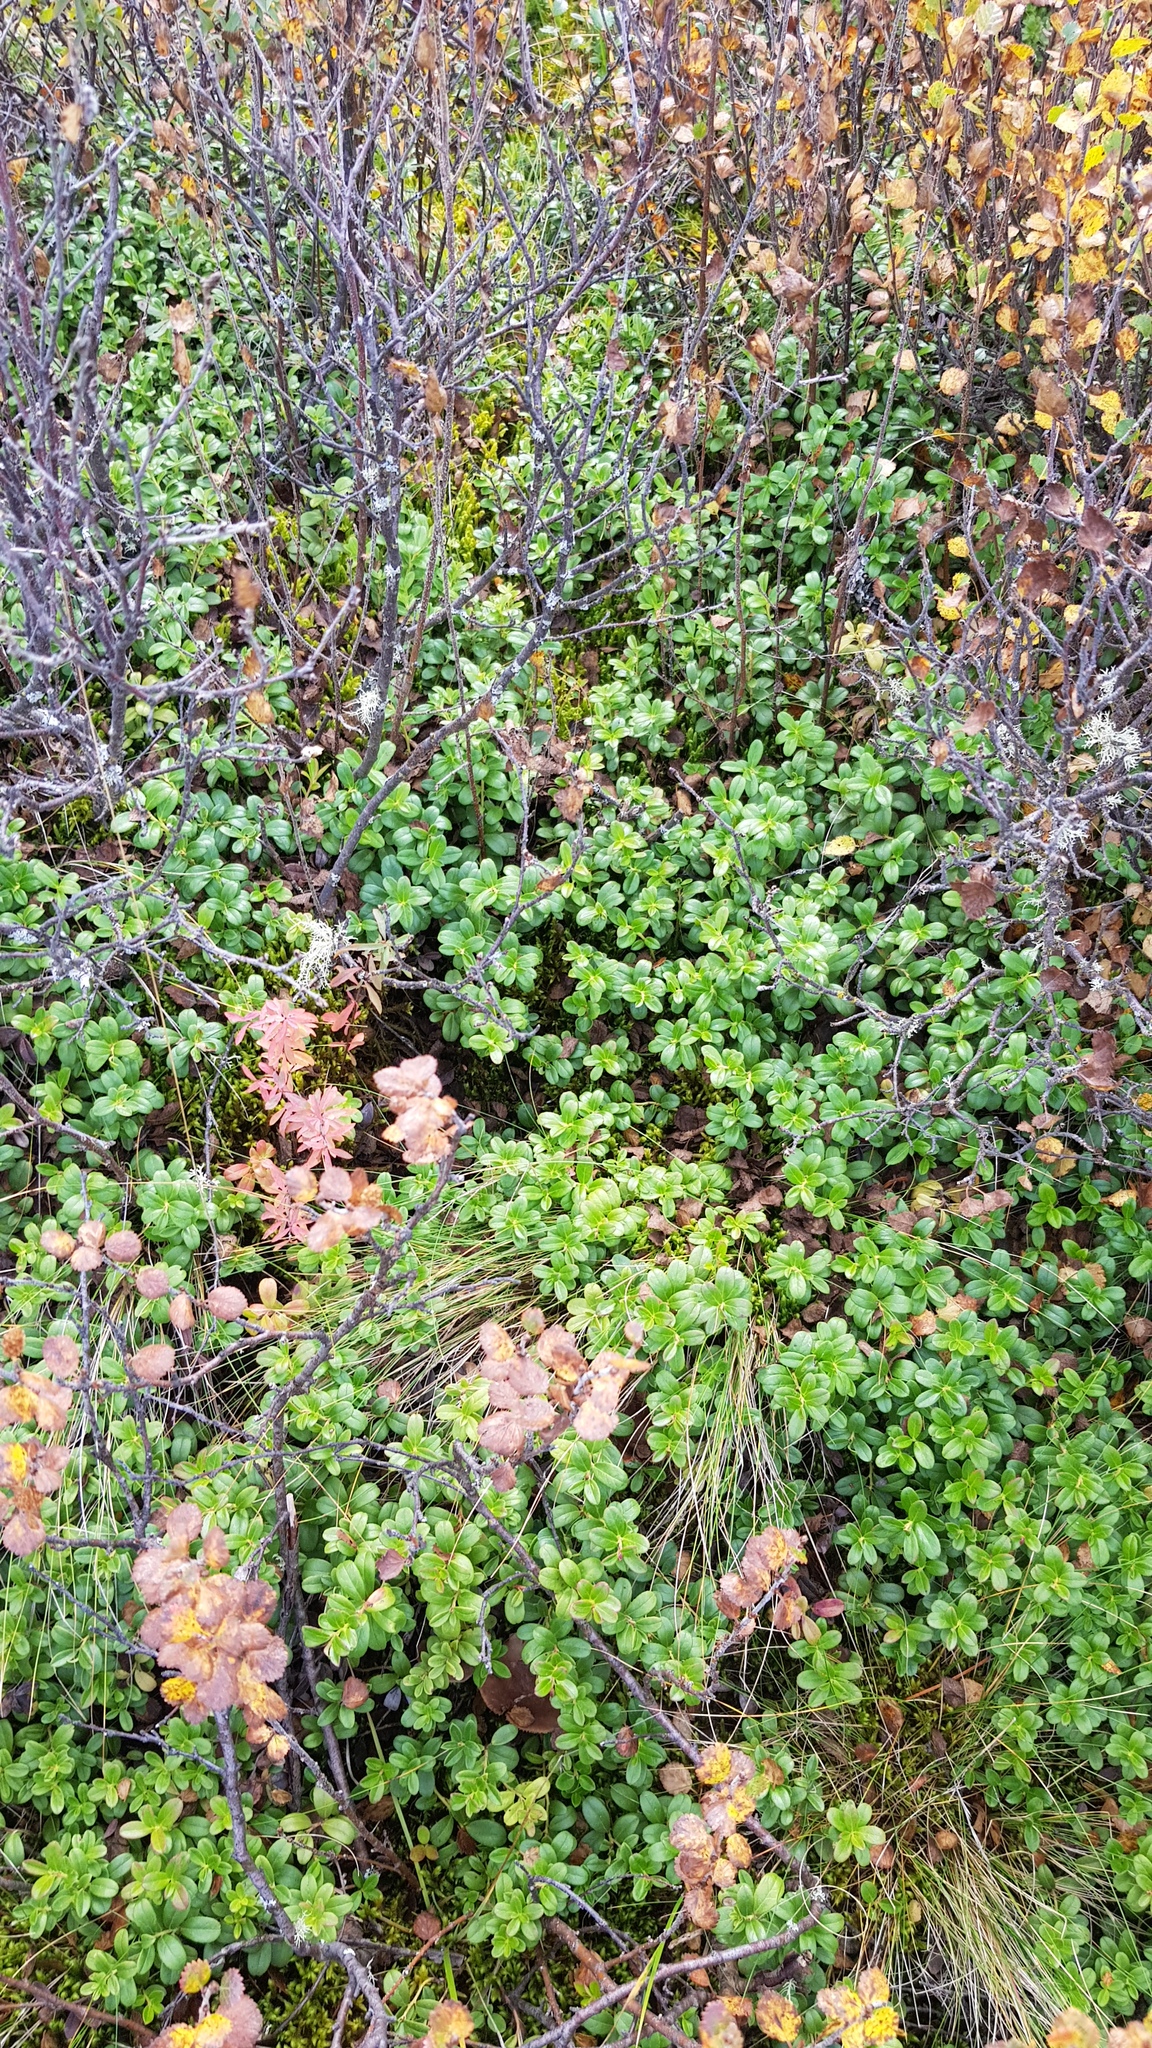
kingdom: Plantae
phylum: Tracheophyta
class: Magnoliopsida
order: Ericales
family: Ericaceae
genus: Vaccinium
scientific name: Vaccinium vitis-idaea
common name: Cowberry
